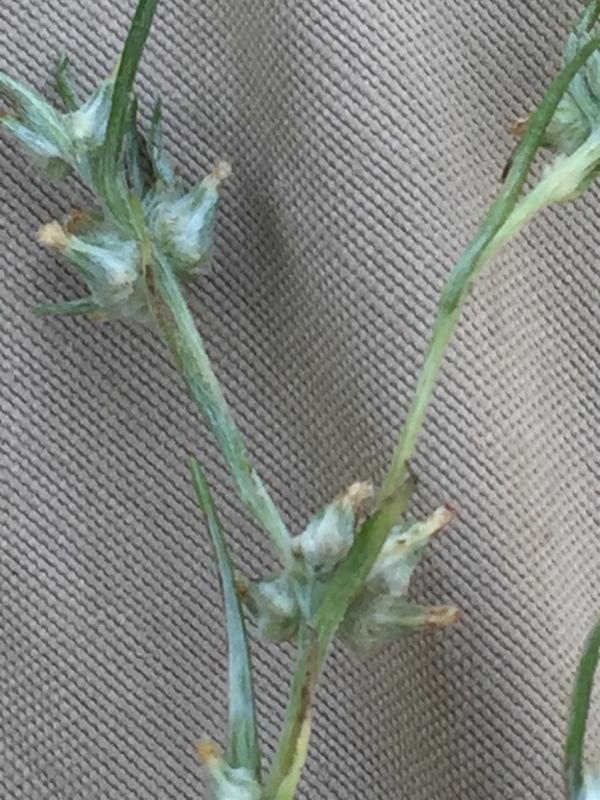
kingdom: Plantae
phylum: Tracheophyta
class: Magnoliopsida
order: Asterales
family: Asteraceae
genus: Logfia
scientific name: Logfia gallica
